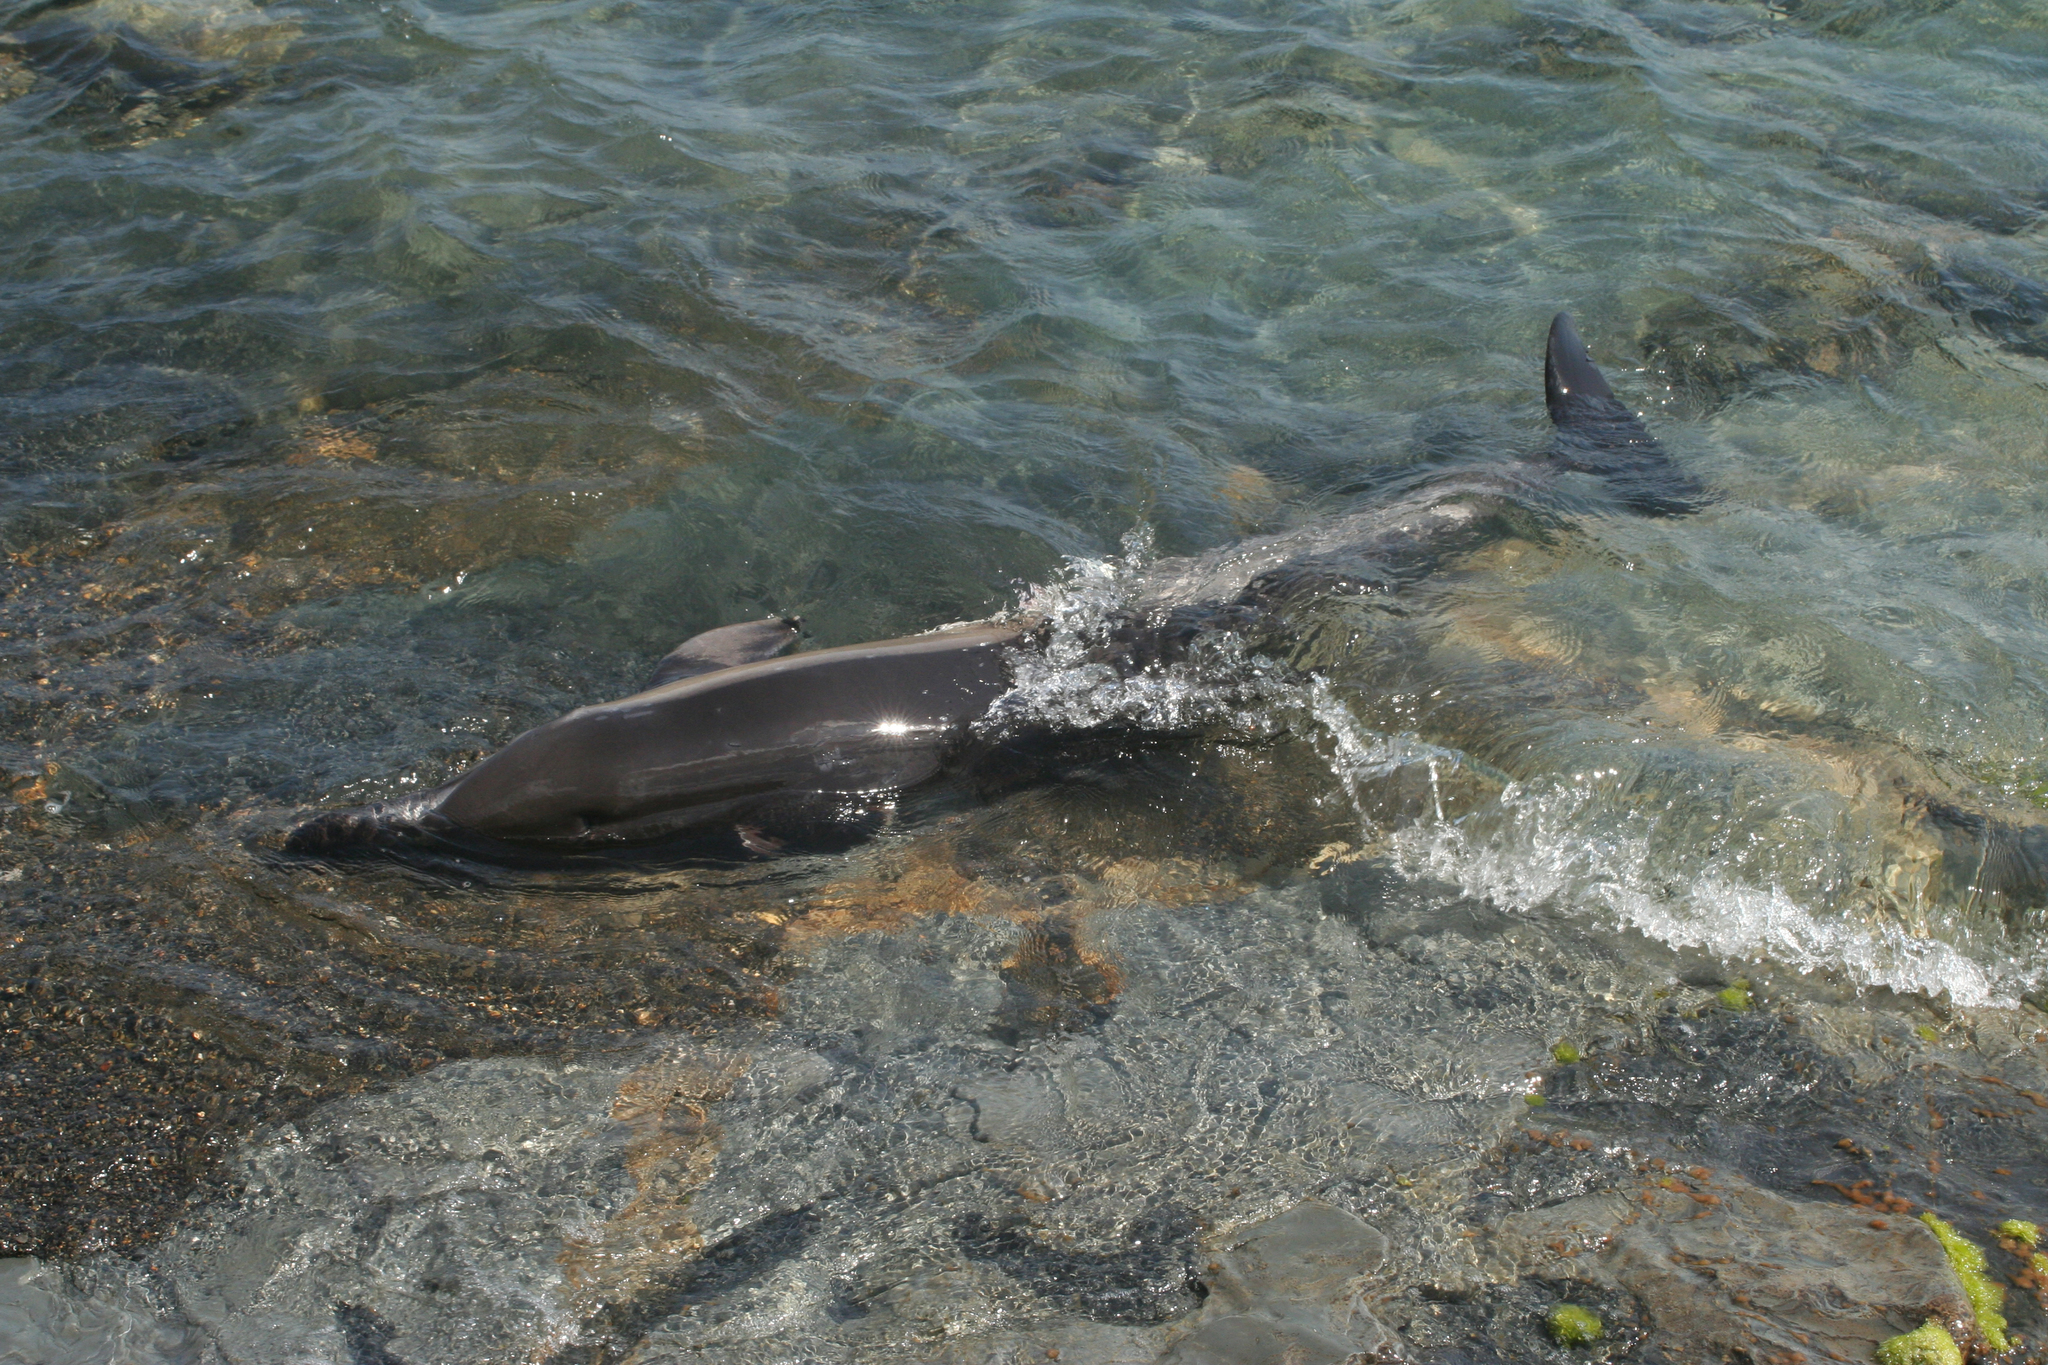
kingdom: Animalia
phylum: Chordata
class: Mammalia
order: Cetacea
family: Delphinidae
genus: Delphinus
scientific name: Delphinus delphis
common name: Common dolphin
